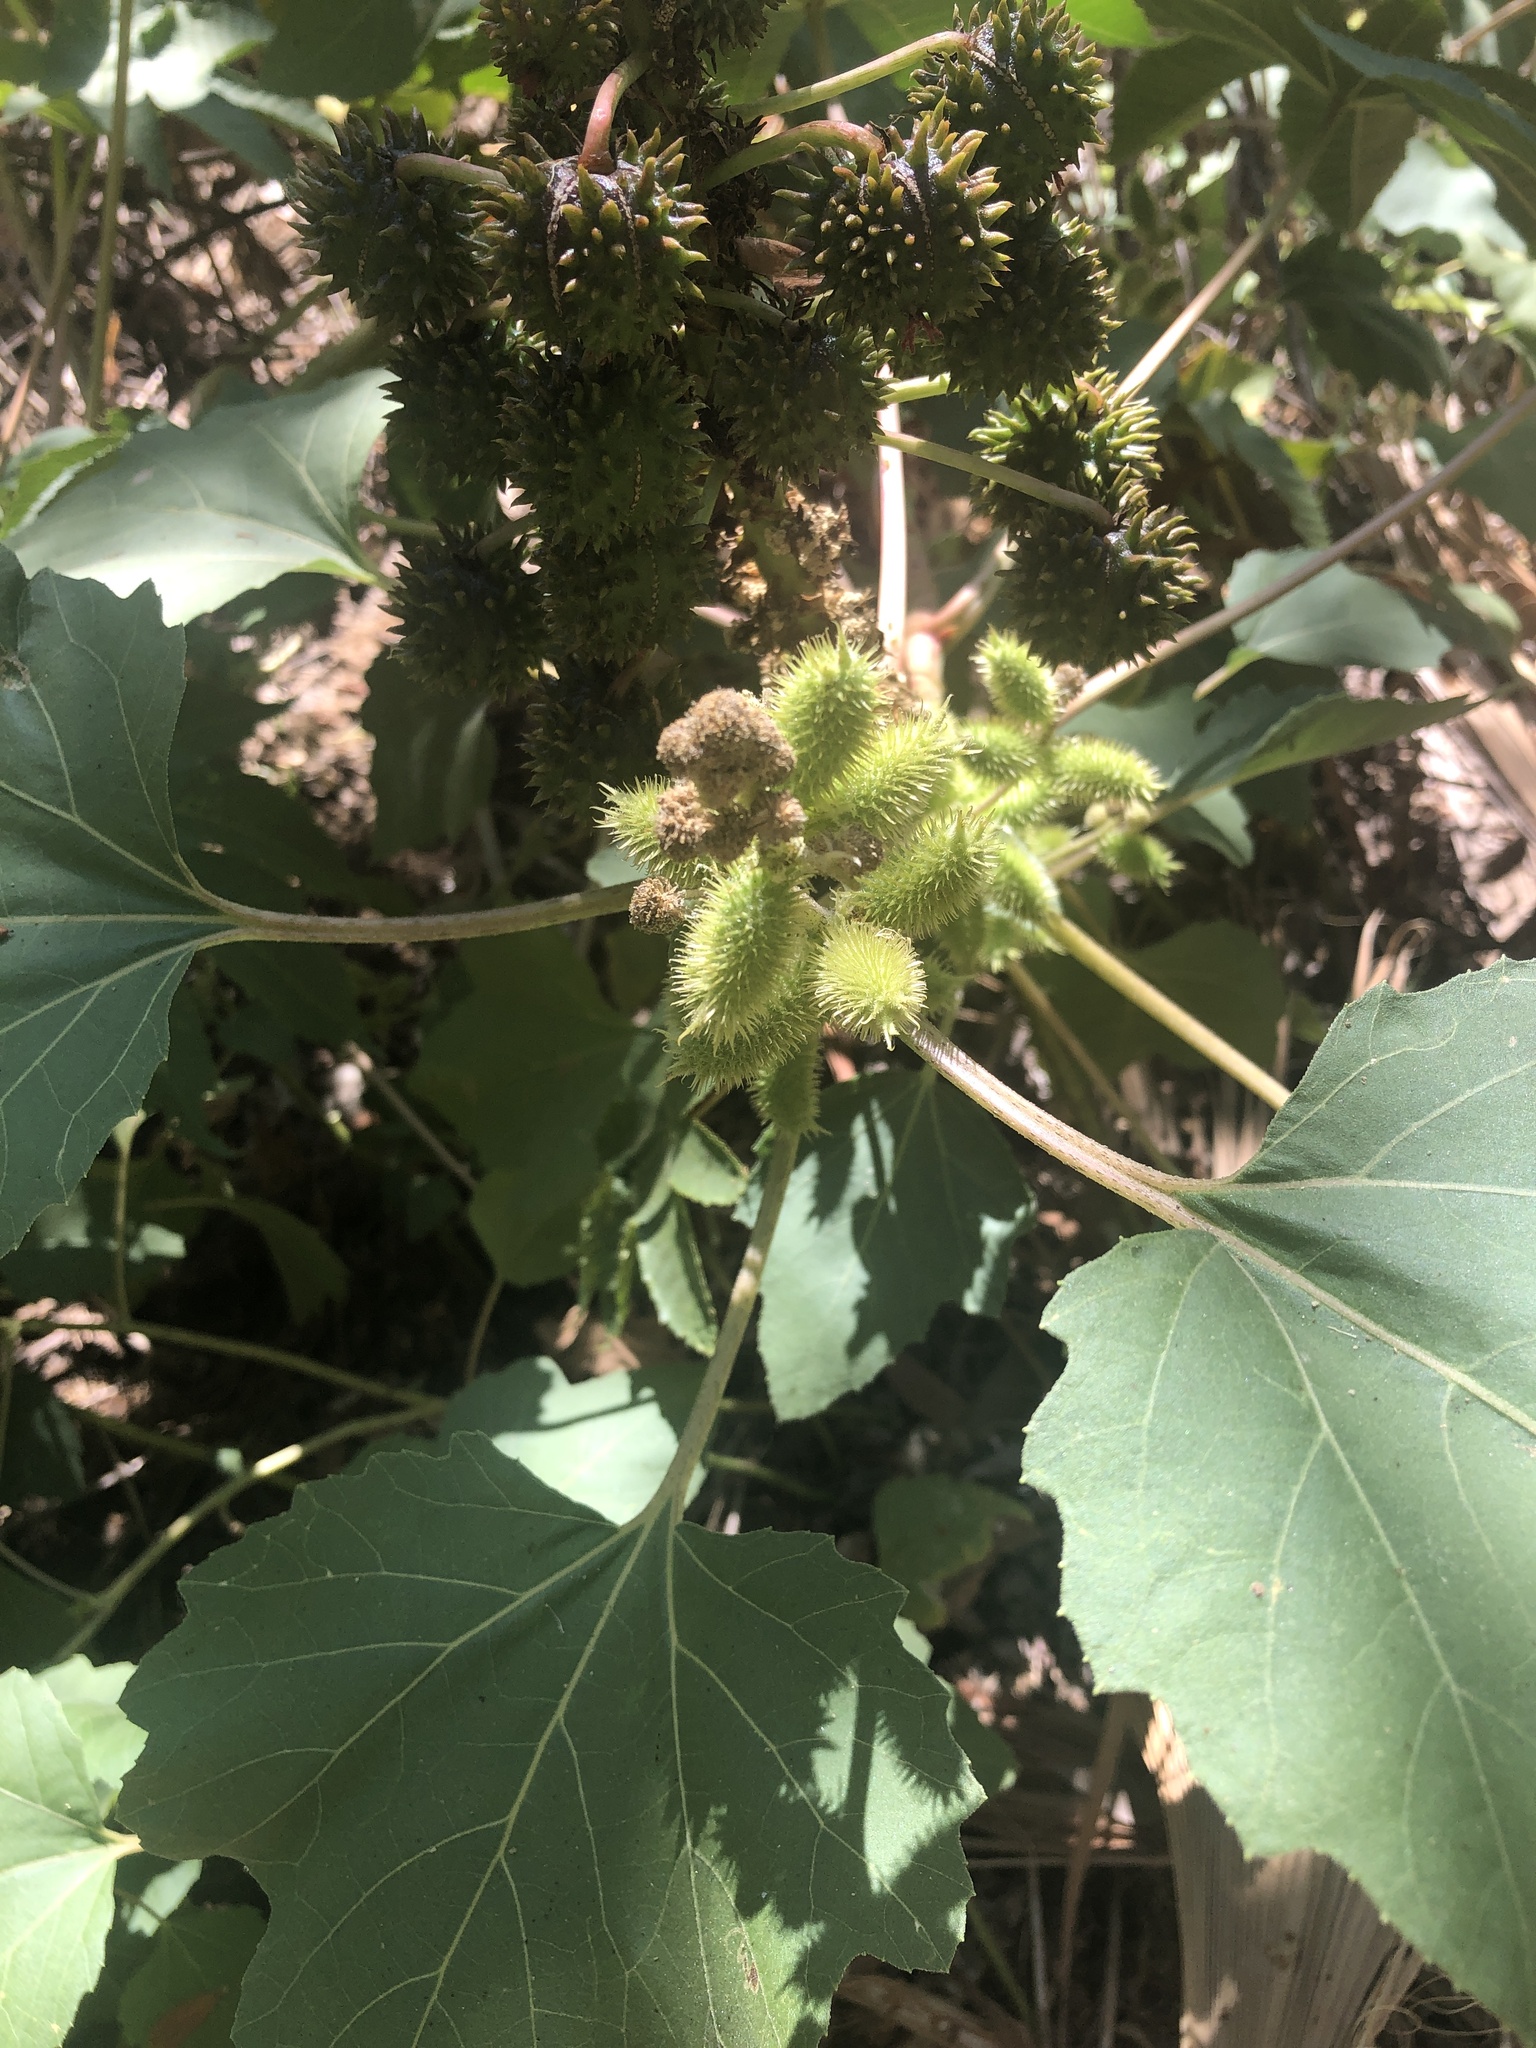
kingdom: Plantae
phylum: Tracheophyta
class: Magnoliopsida
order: Asterales
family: Asteraceae
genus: Xanthium
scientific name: Xanthium strumarium
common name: Rough cocklebur
